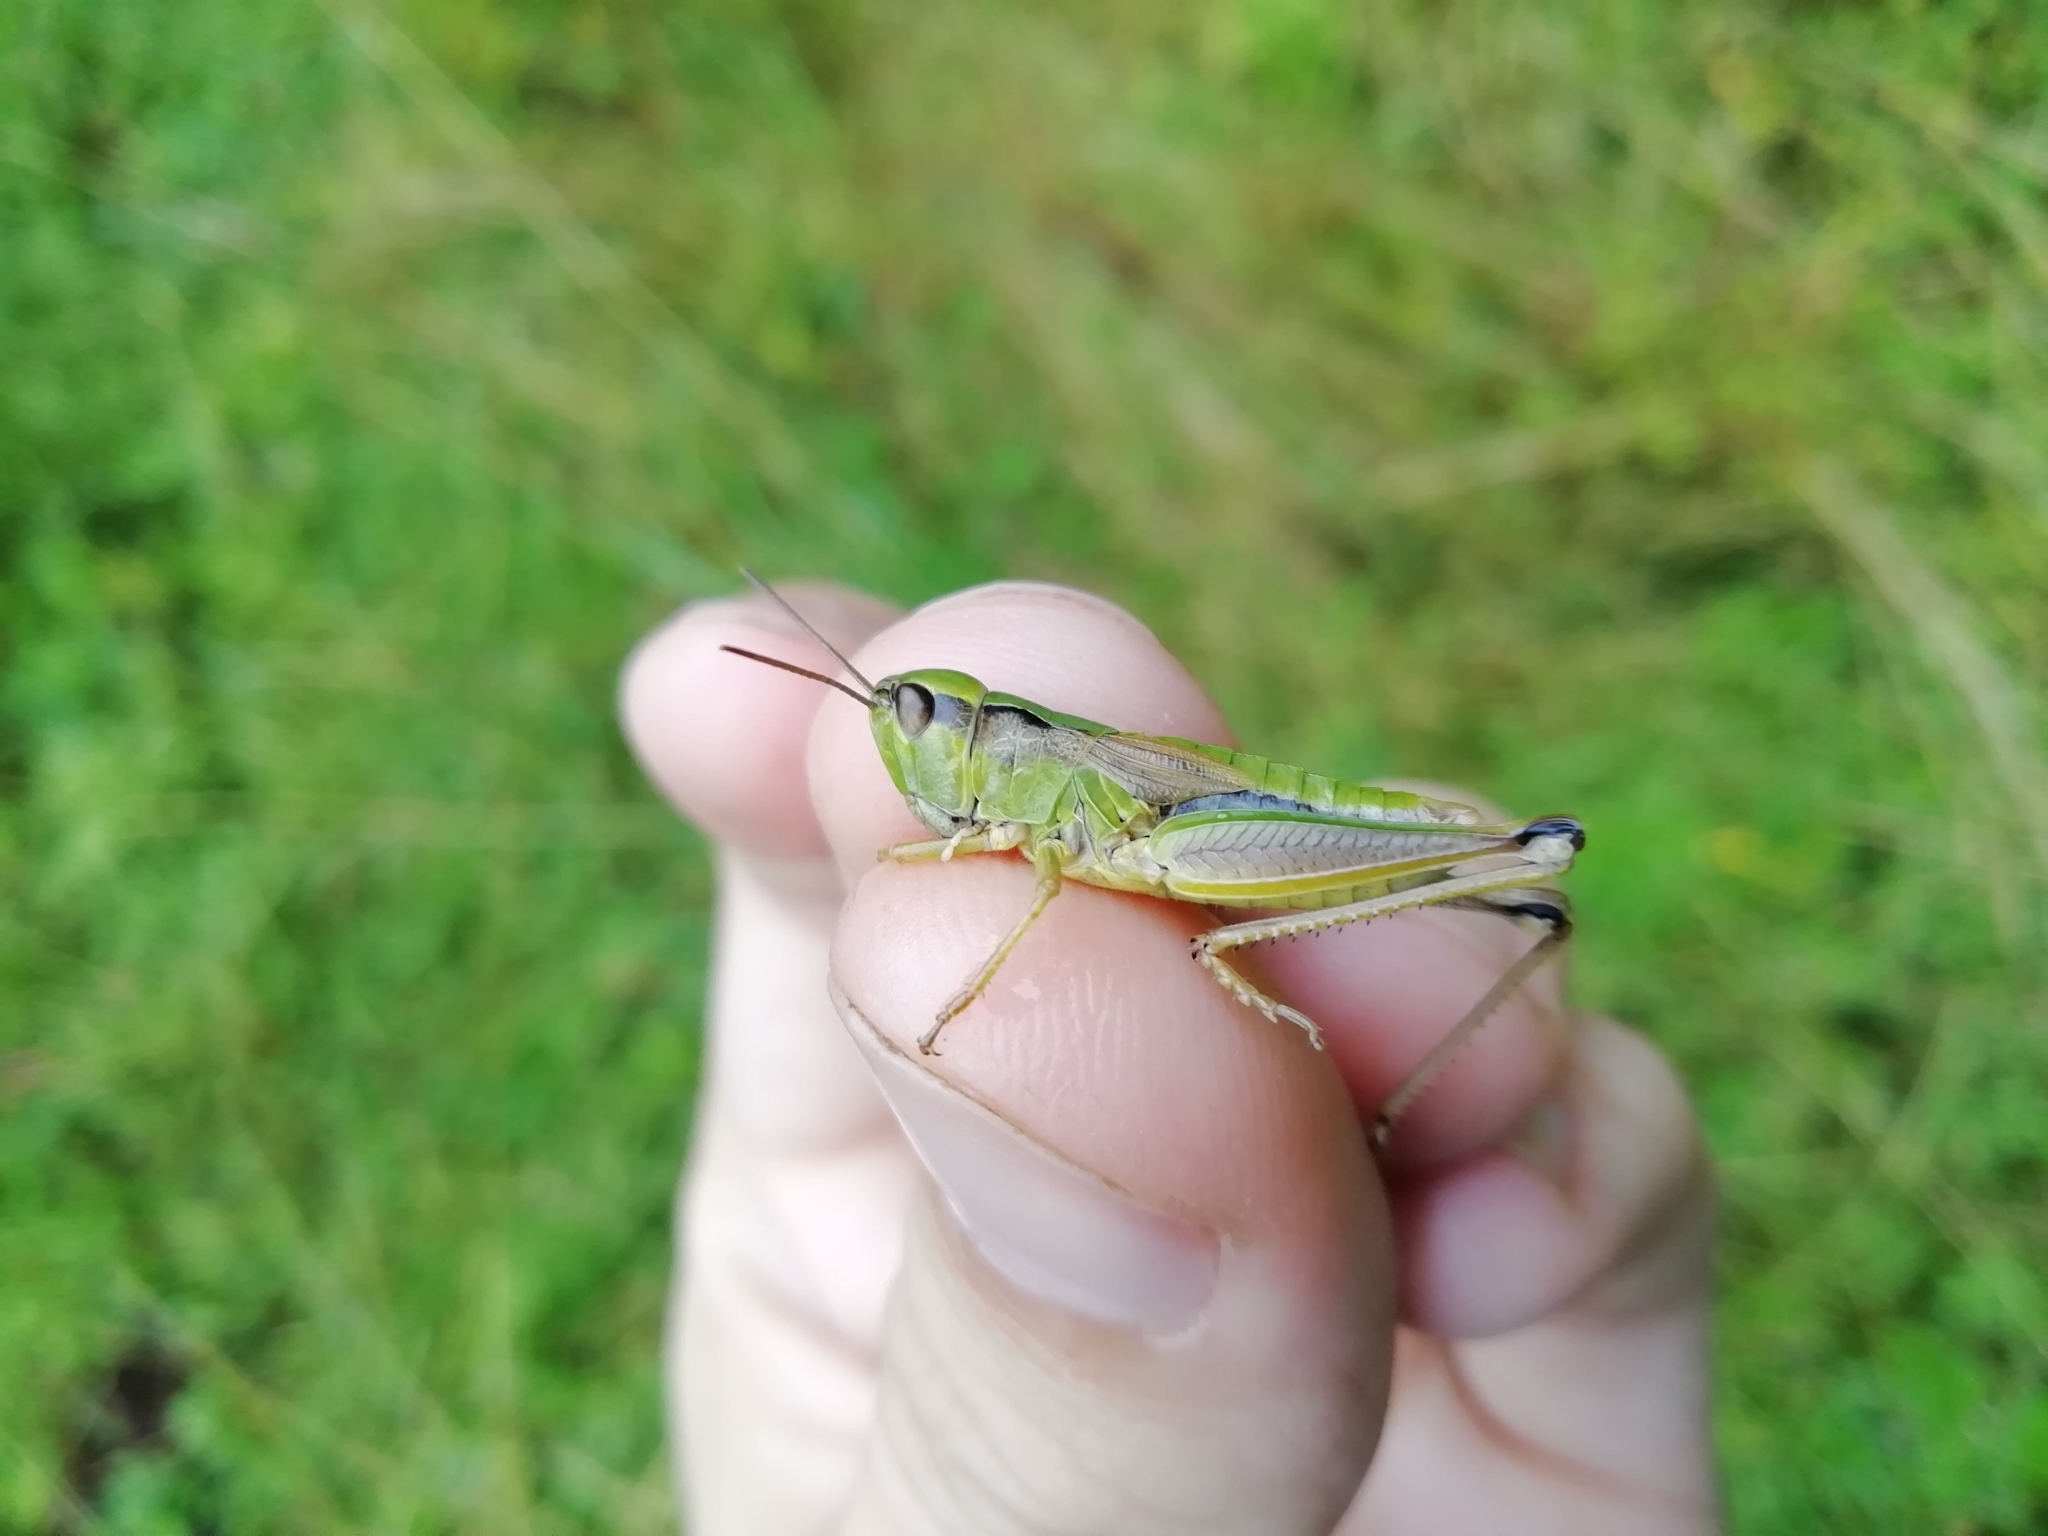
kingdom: Animalia
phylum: Arthropoda
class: Insecta
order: Orthoptera
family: Acrididae
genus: Chorthippus
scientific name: Chorthippus fallax
